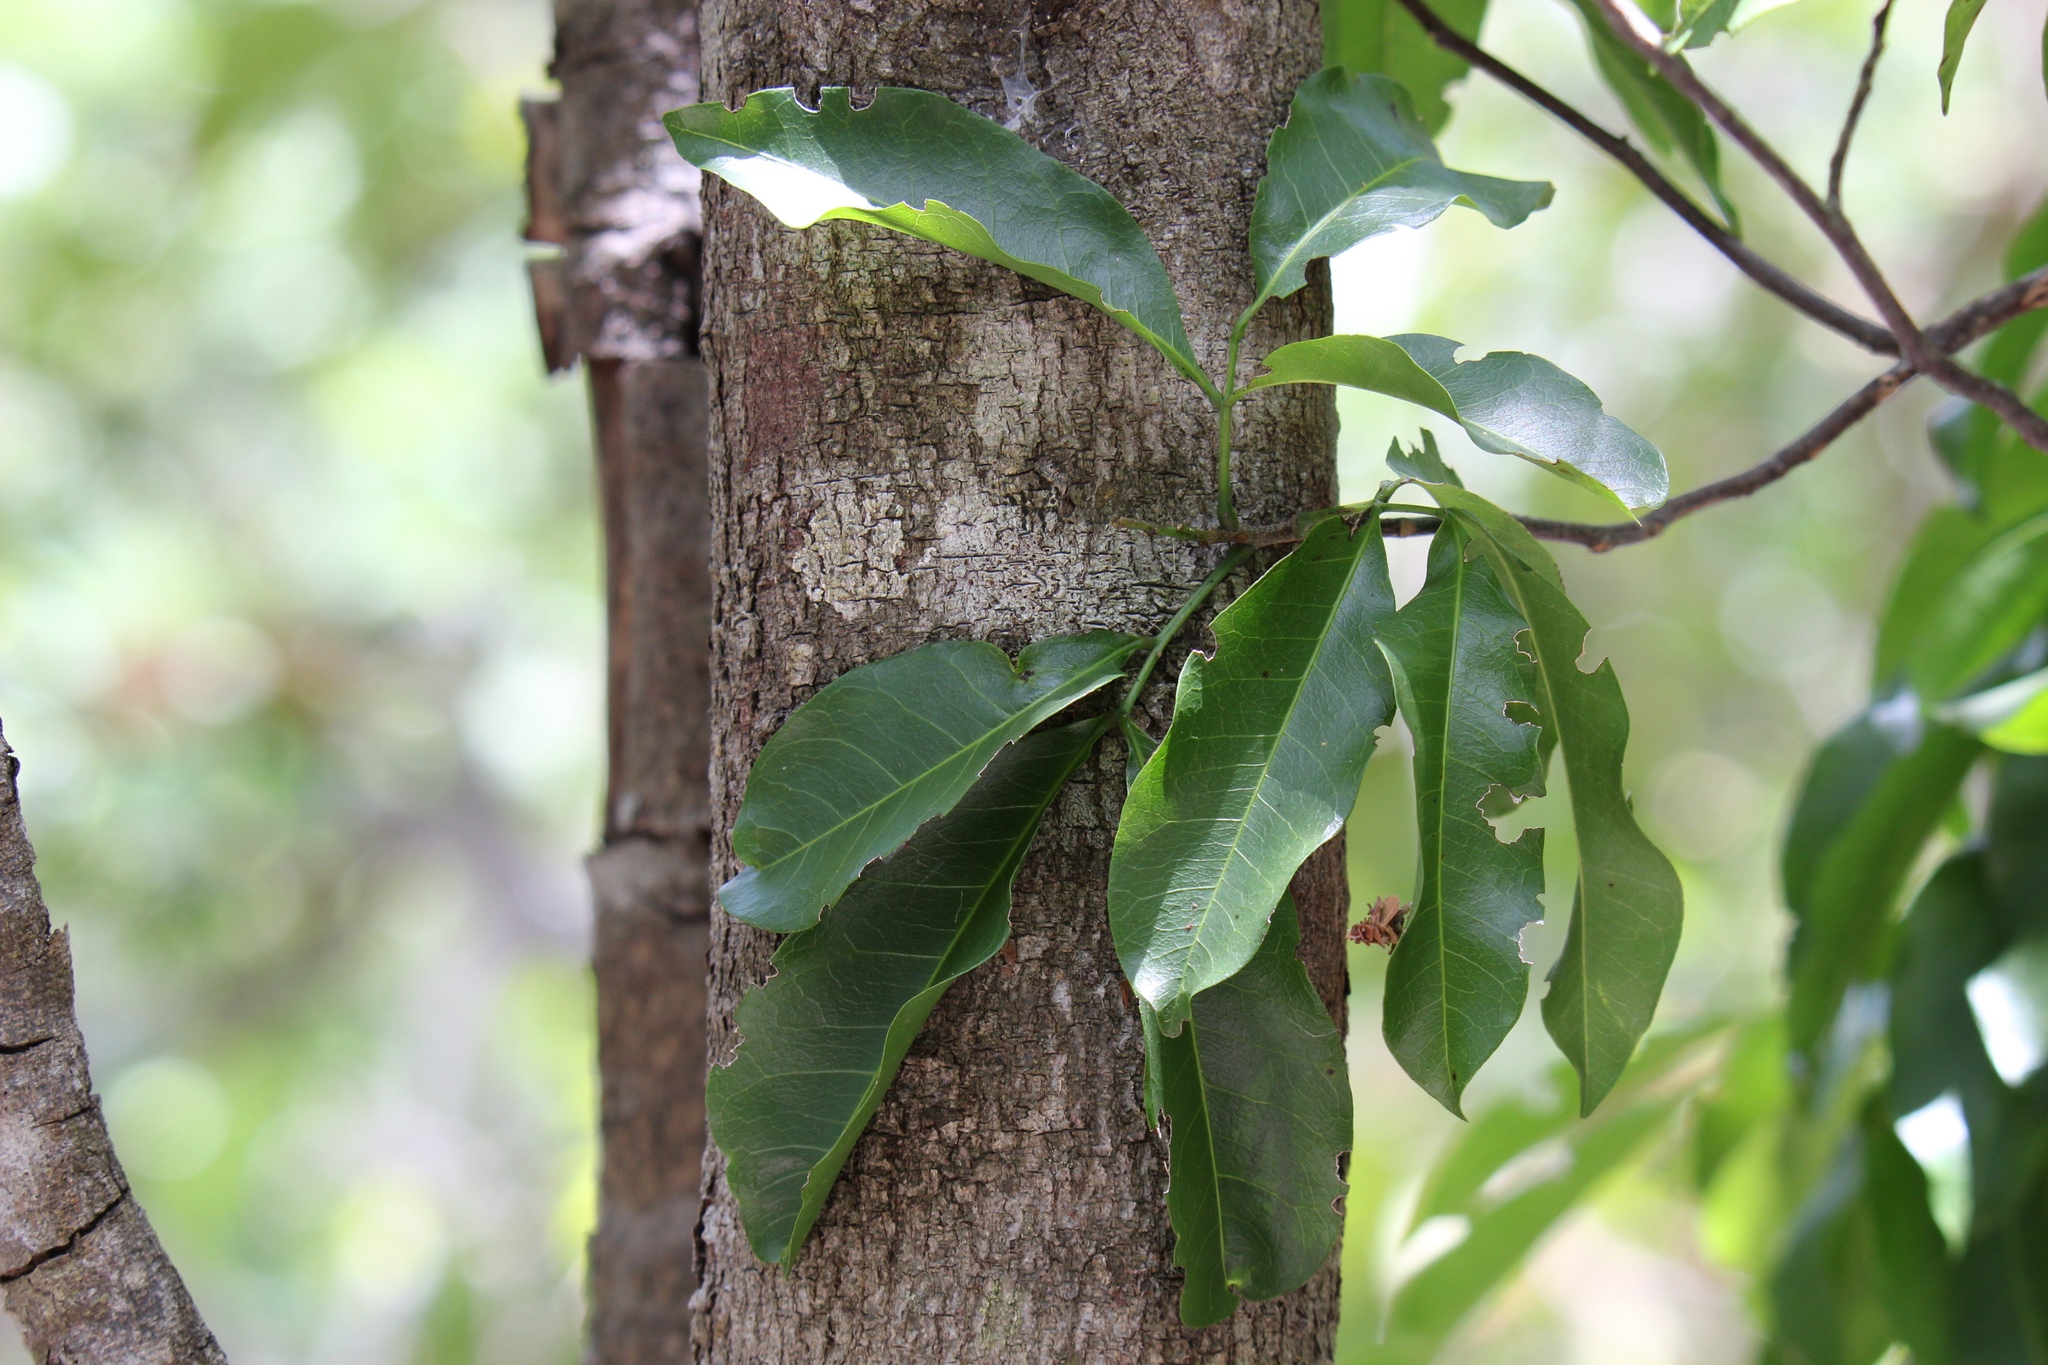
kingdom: Plantae
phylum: Tracheophyta
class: Magnoliopsida
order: Sapindales
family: Sapindaceae
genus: Exothea
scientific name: Exothea paniculata
